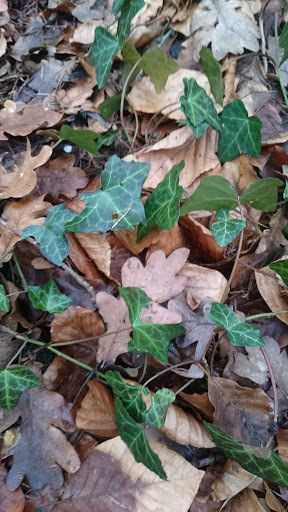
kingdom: Plantae
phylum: Tracheophyta
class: Magnoliopsida
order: Apiales
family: Araliaceae
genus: Hedera
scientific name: Hedera helix
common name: Ivy
